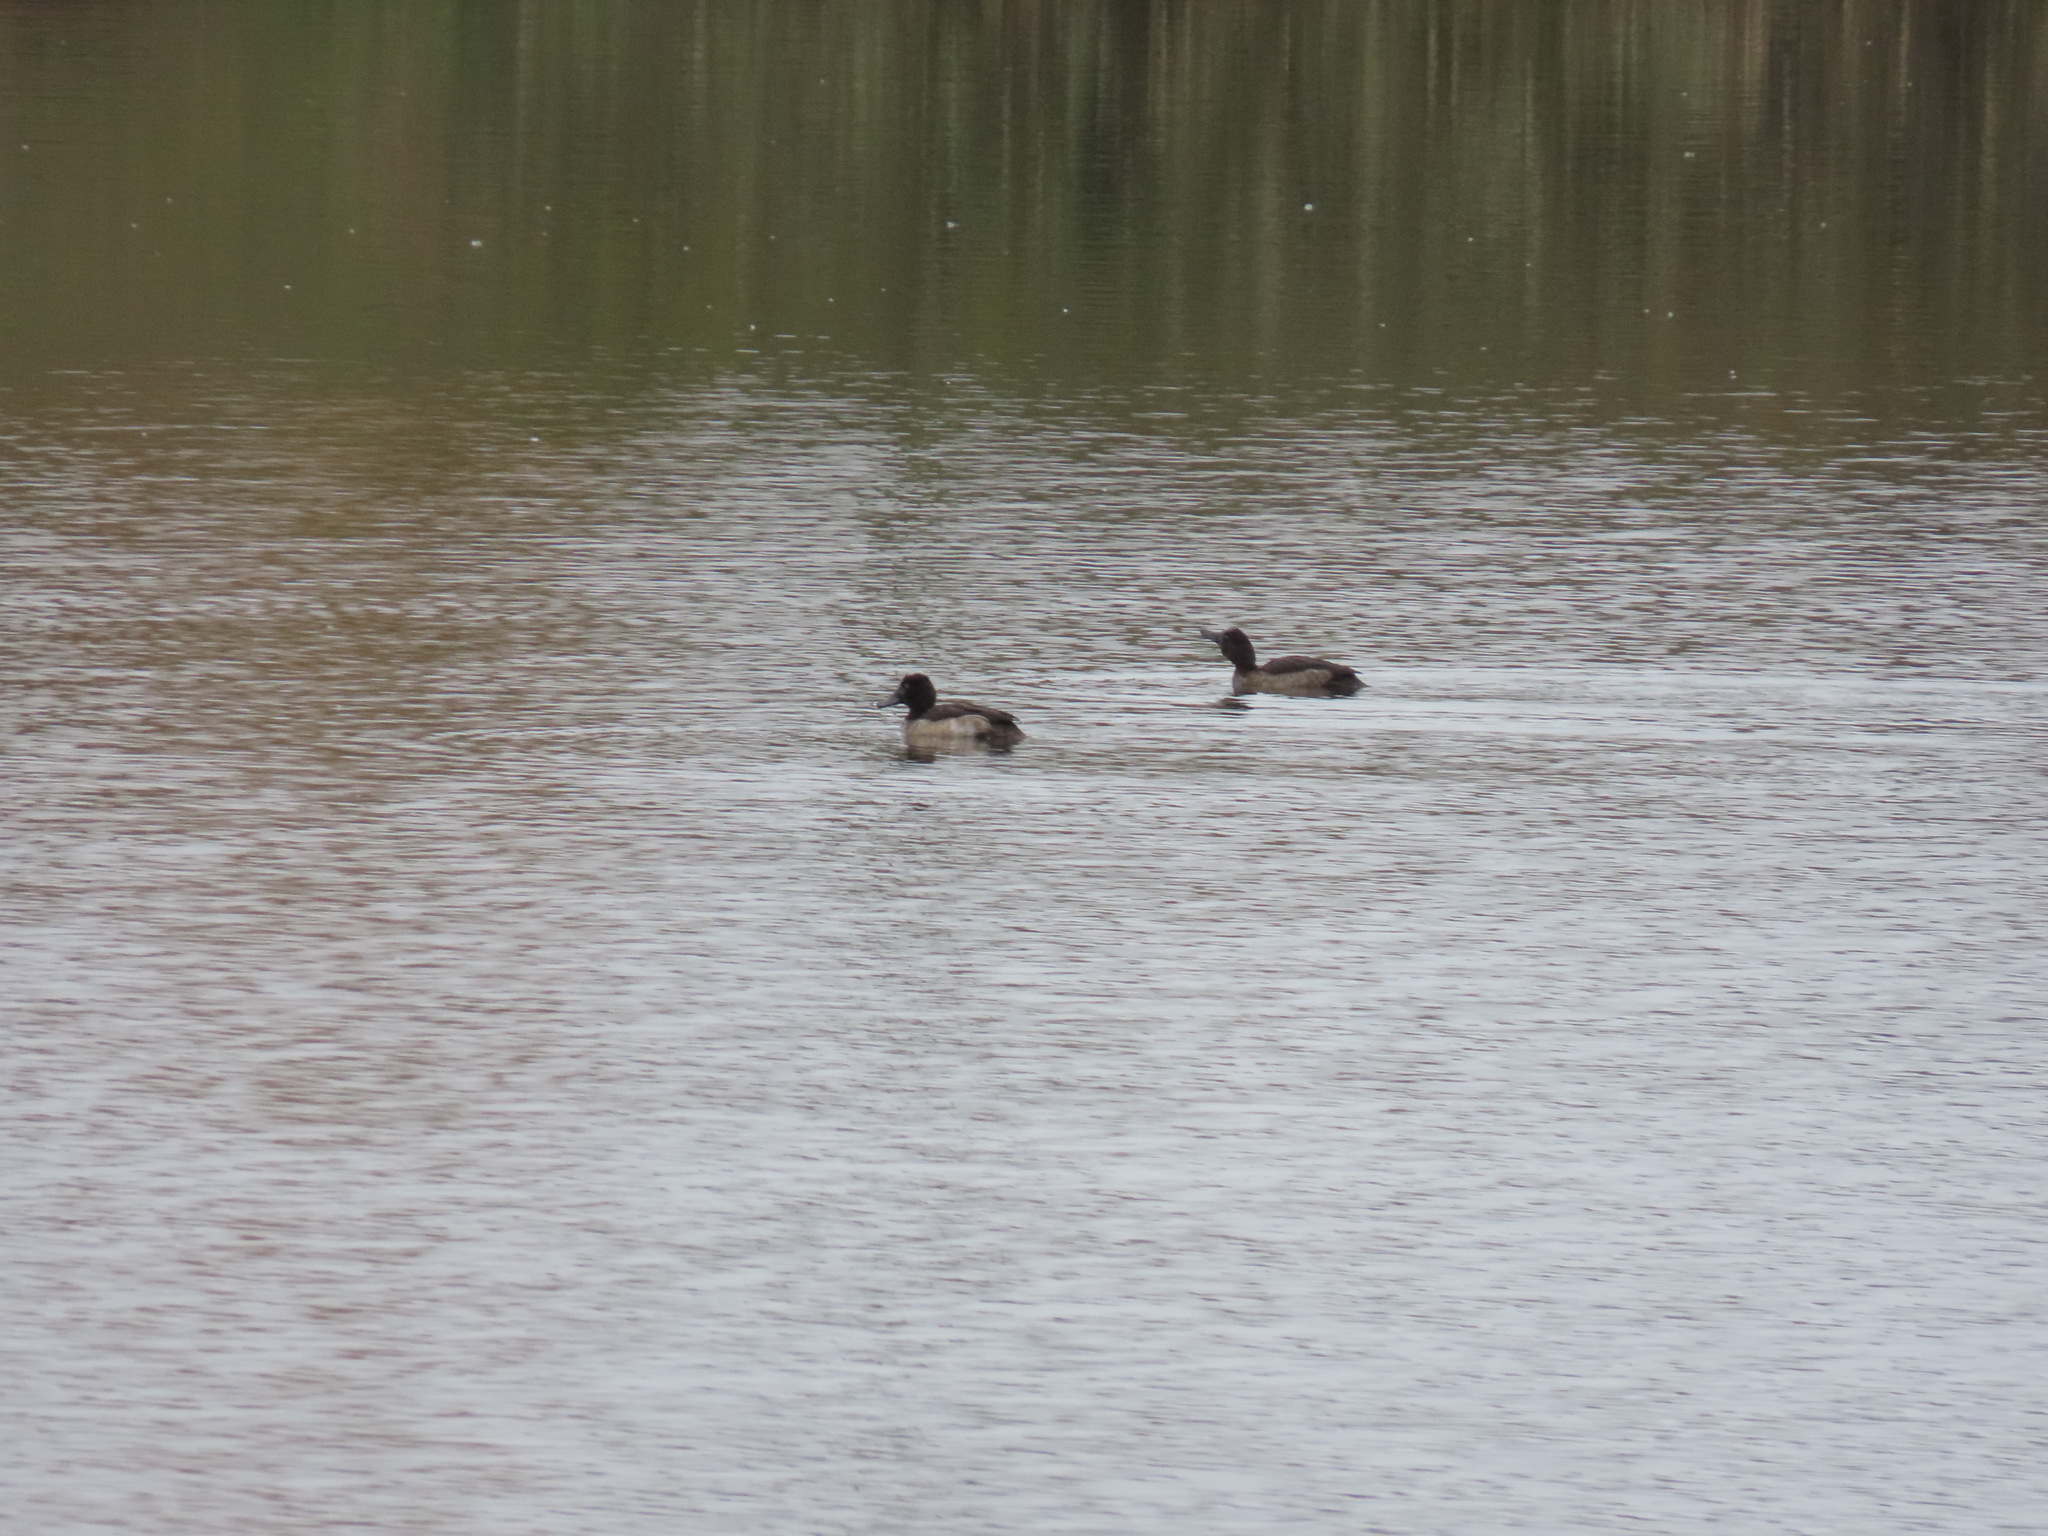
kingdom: Animalia
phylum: Chordata
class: Aves
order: Anseriformes
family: Anatidae
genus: Aythya
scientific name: Aythya fuligula
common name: Tufted duck
